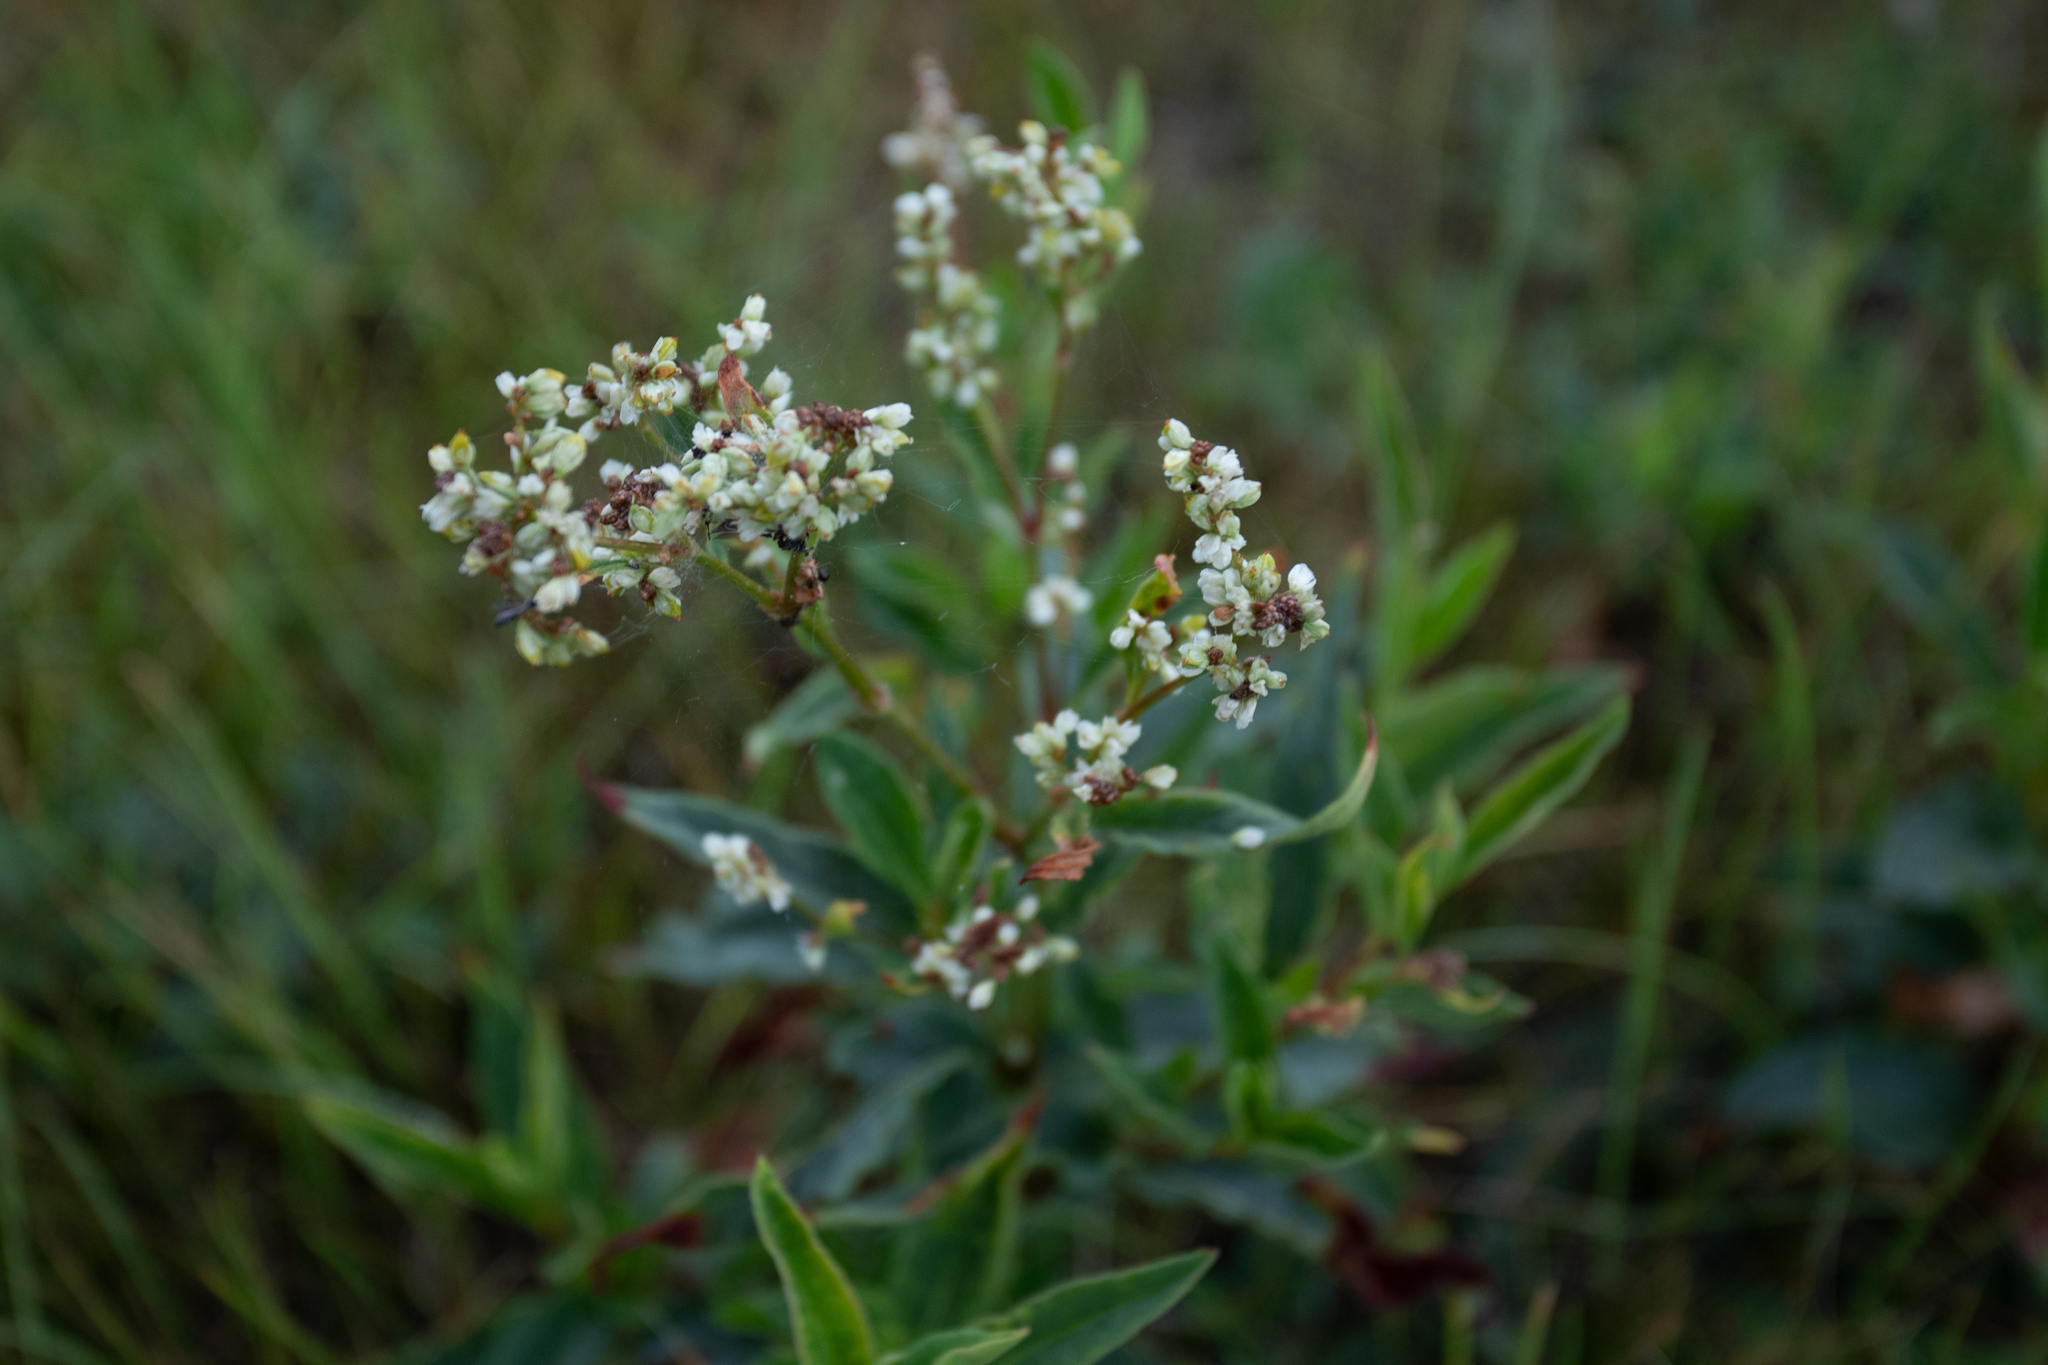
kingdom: Plantae
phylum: Tracheophyta
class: Magnoliopsida
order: Caryophyllales
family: Polygonaceae
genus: Koenigia
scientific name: Koenigia alpina
